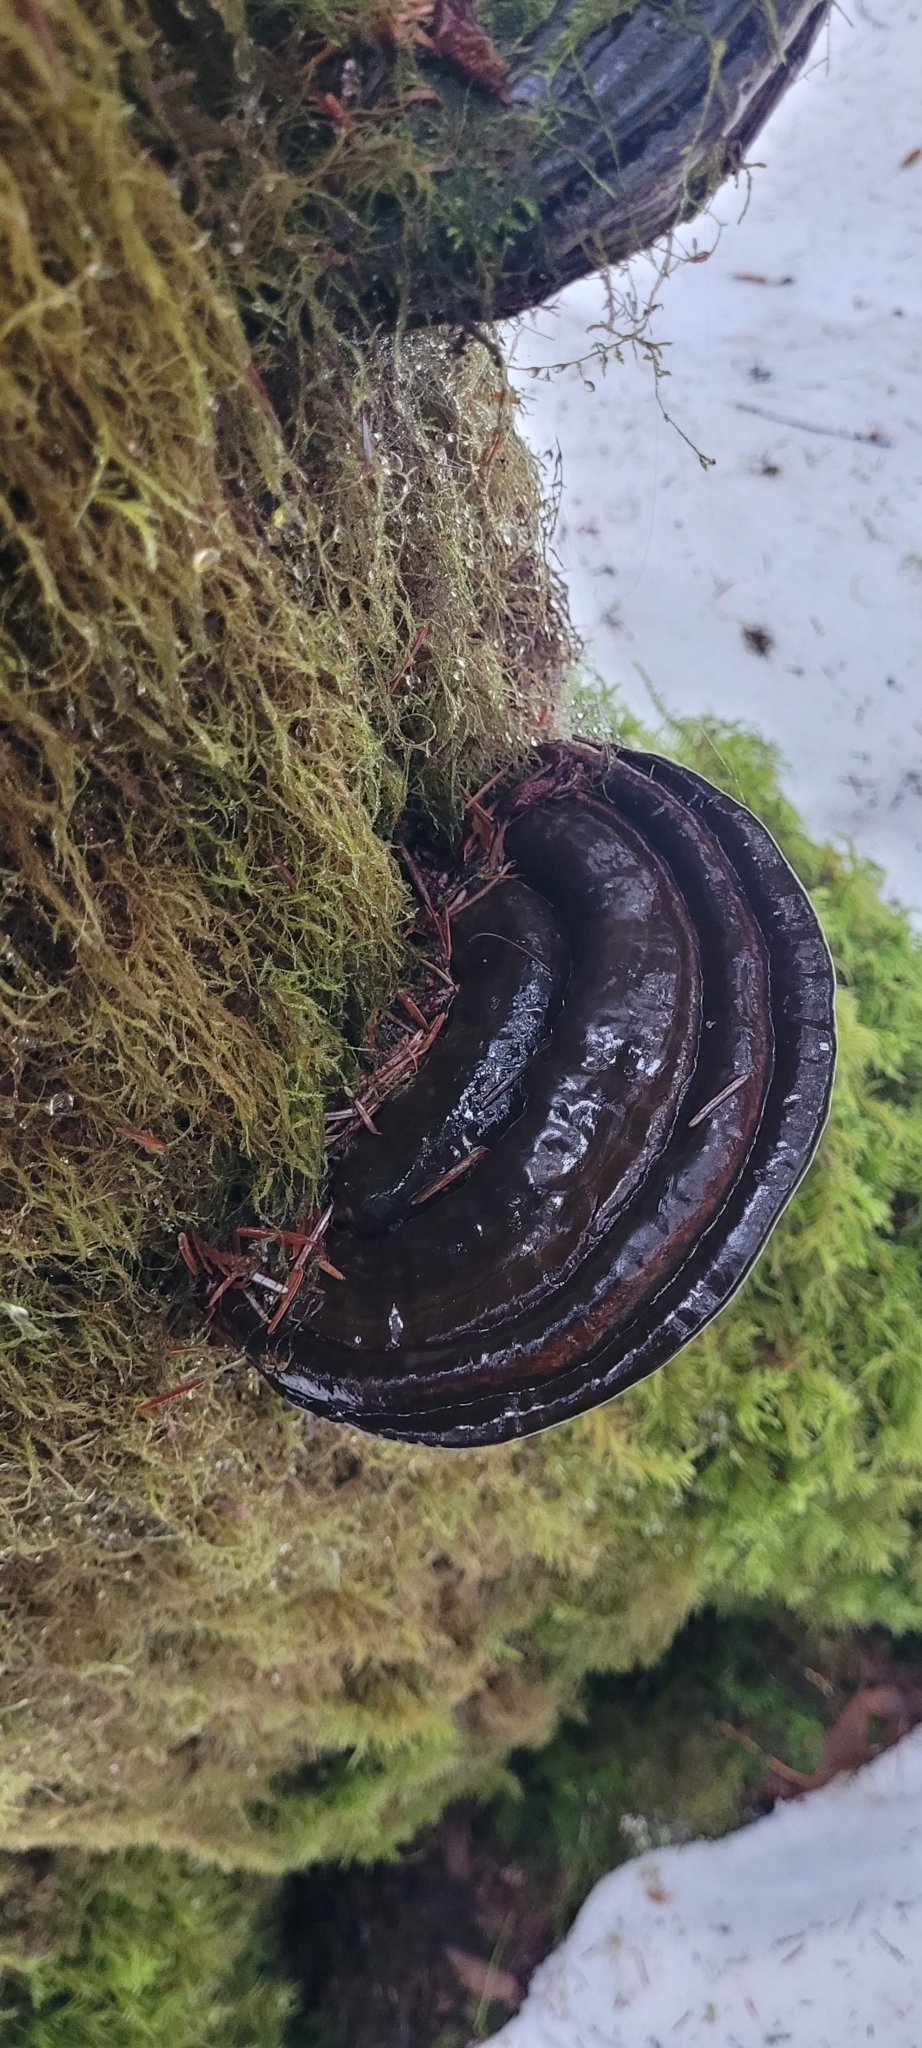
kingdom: Fungi
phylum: Basidiomycota
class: Agaricomycetes
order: Polyporales
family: Fomitopsidaceae
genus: Fomitopsis
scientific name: Fomitopsis ochracea
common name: American brown fomitopsis
